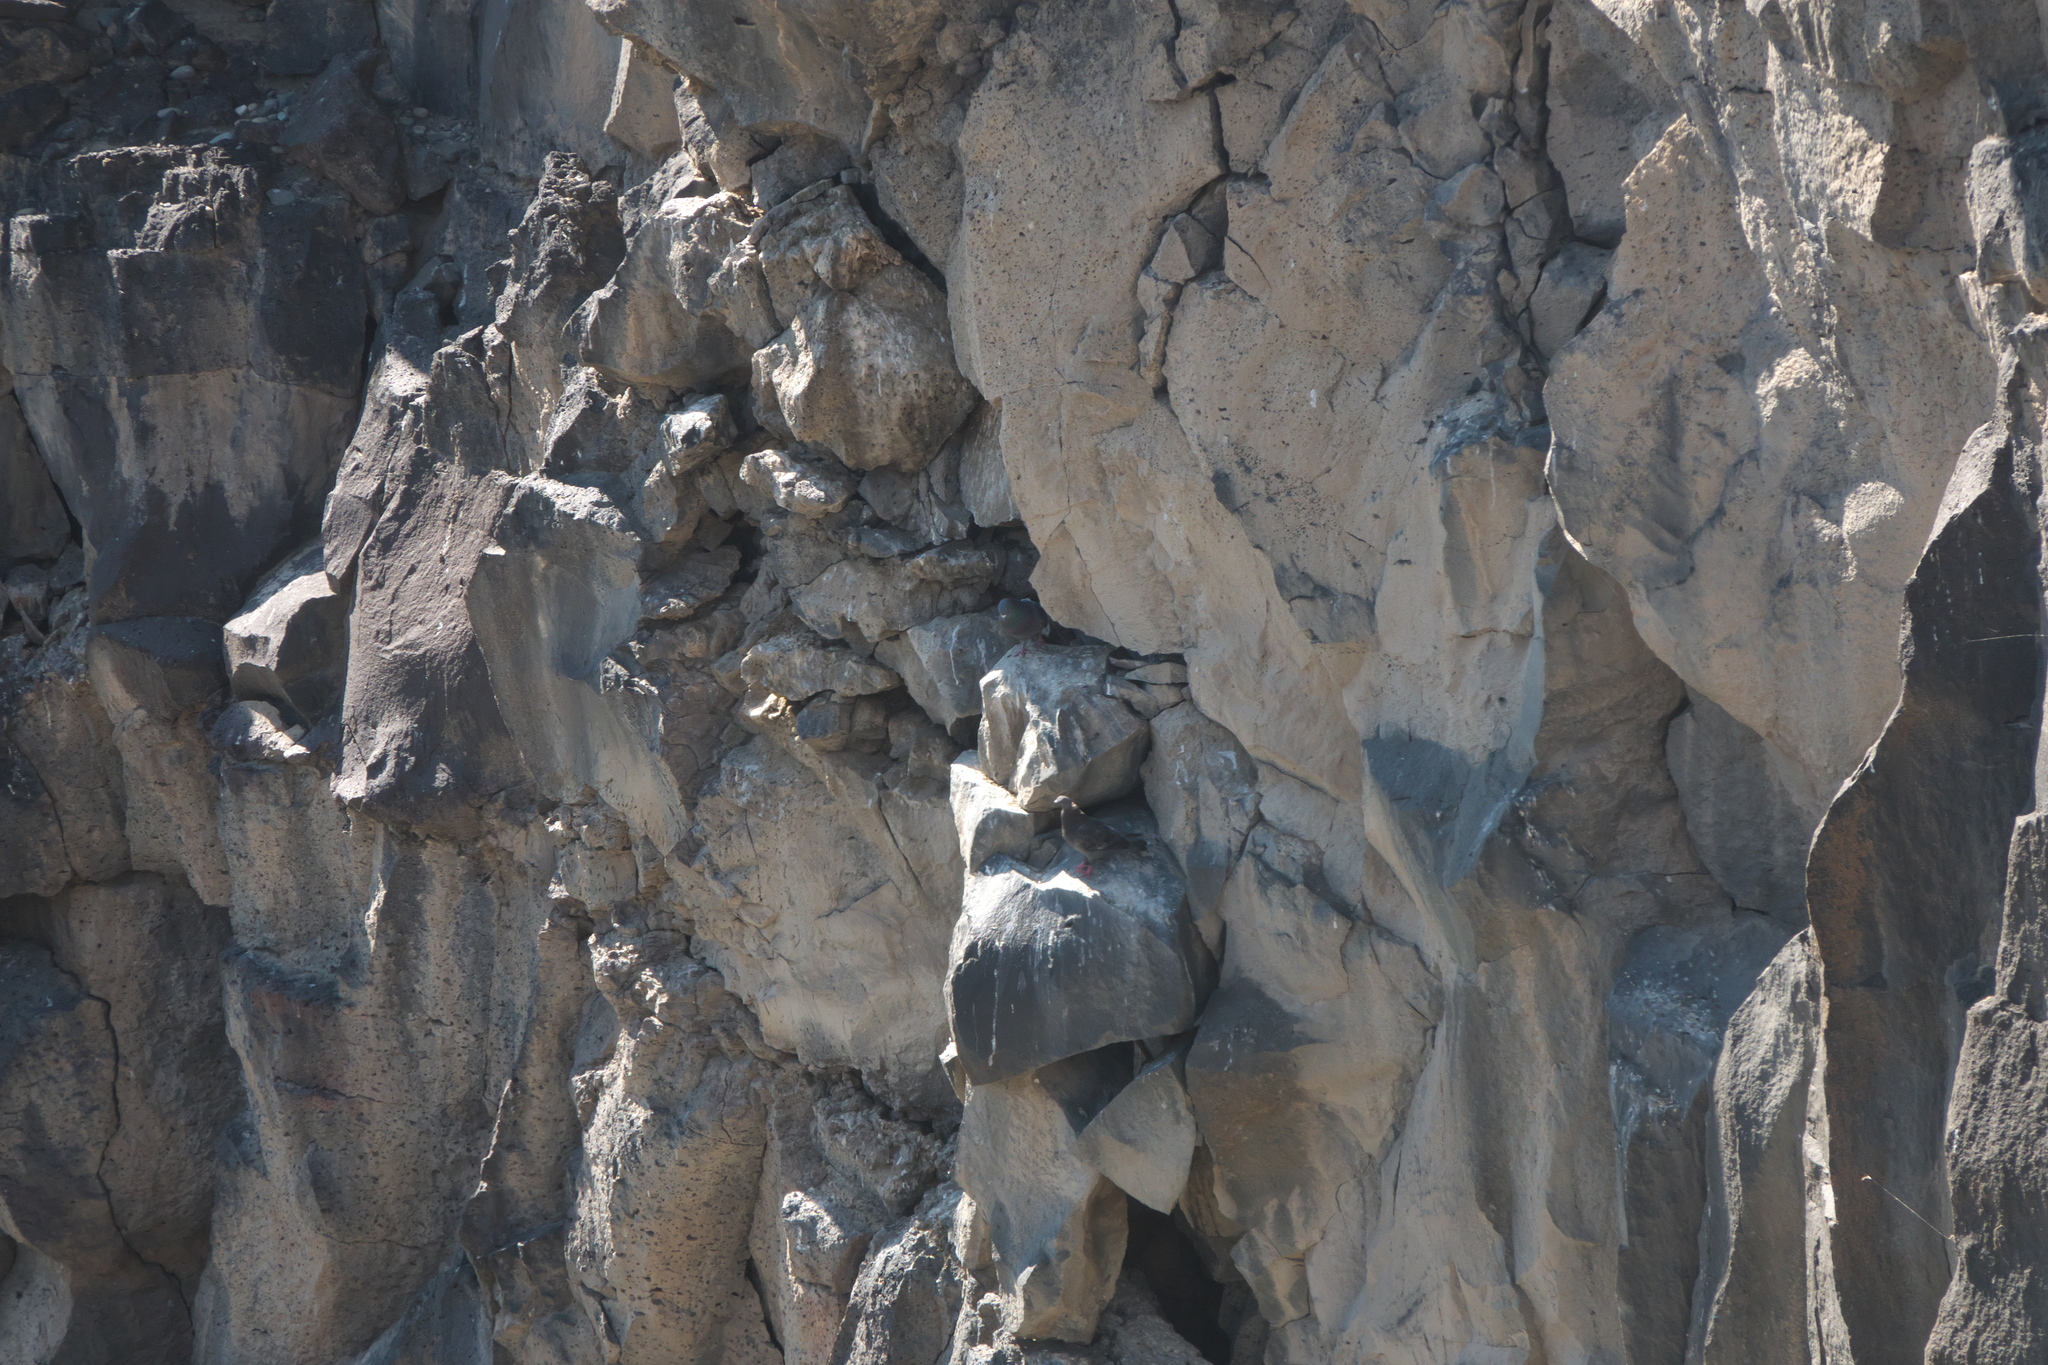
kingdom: Animalia
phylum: Chordata
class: Aves
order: Columbiformes
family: Columbidae
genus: Columba
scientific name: Columba livia
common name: Rock pigeon
